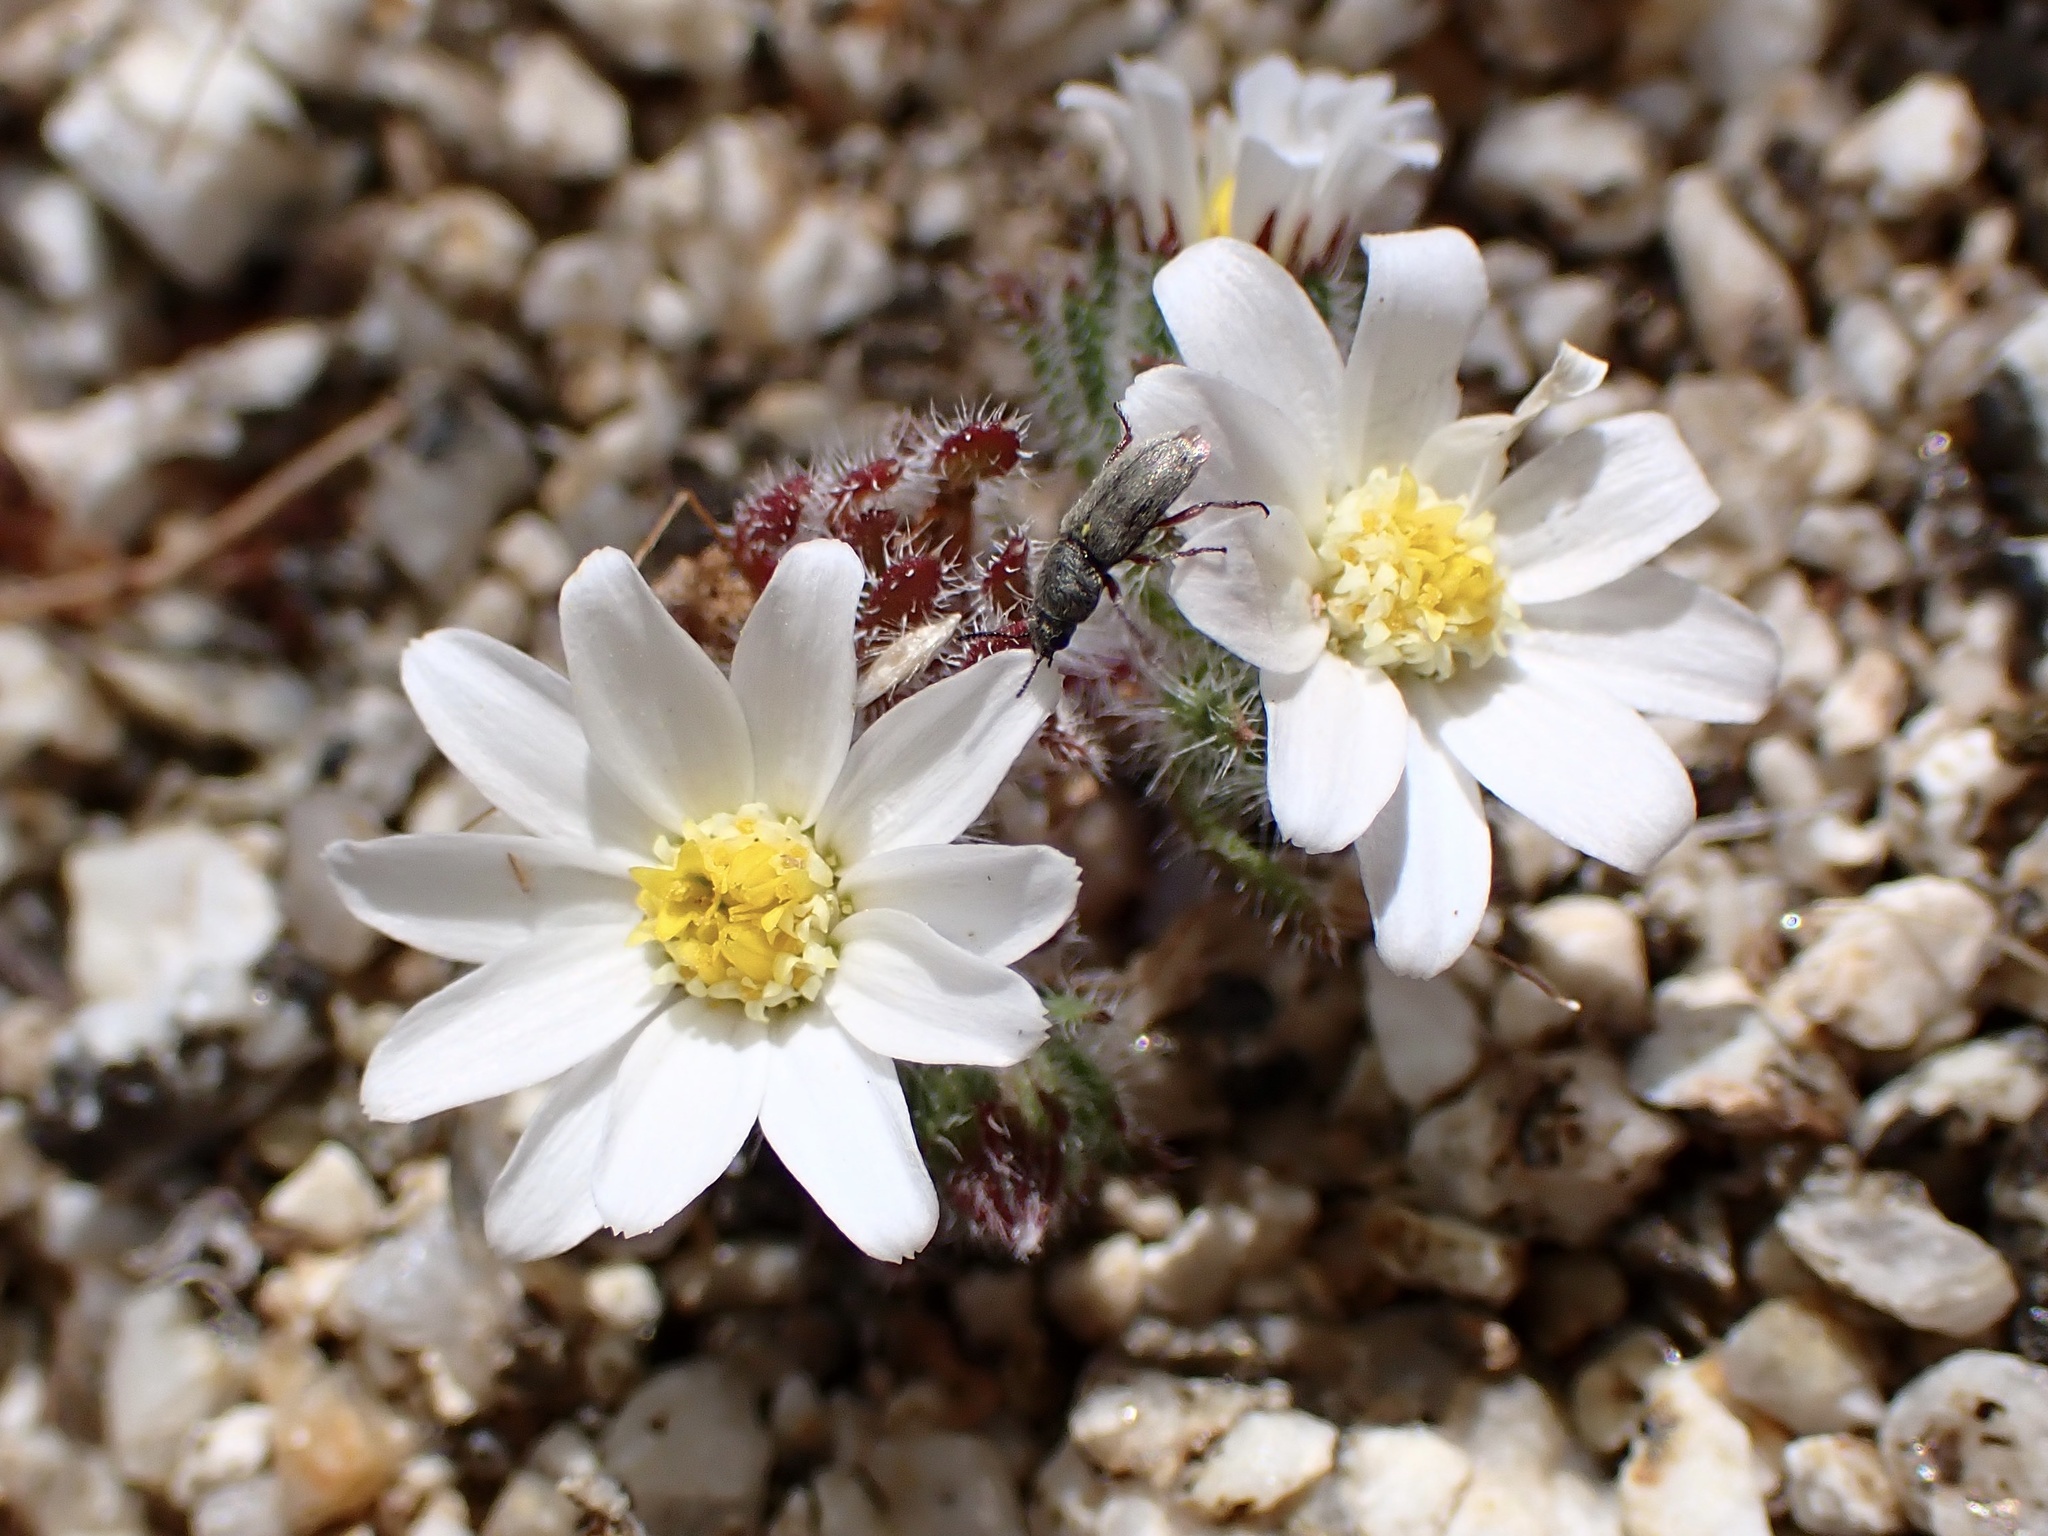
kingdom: Plantae
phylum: Tracheophyta
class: Magnoliopsida
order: Asterales
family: Asteraceae
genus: Monoptilon
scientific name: Monoptilon bellioides
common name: Bristly desertstar
